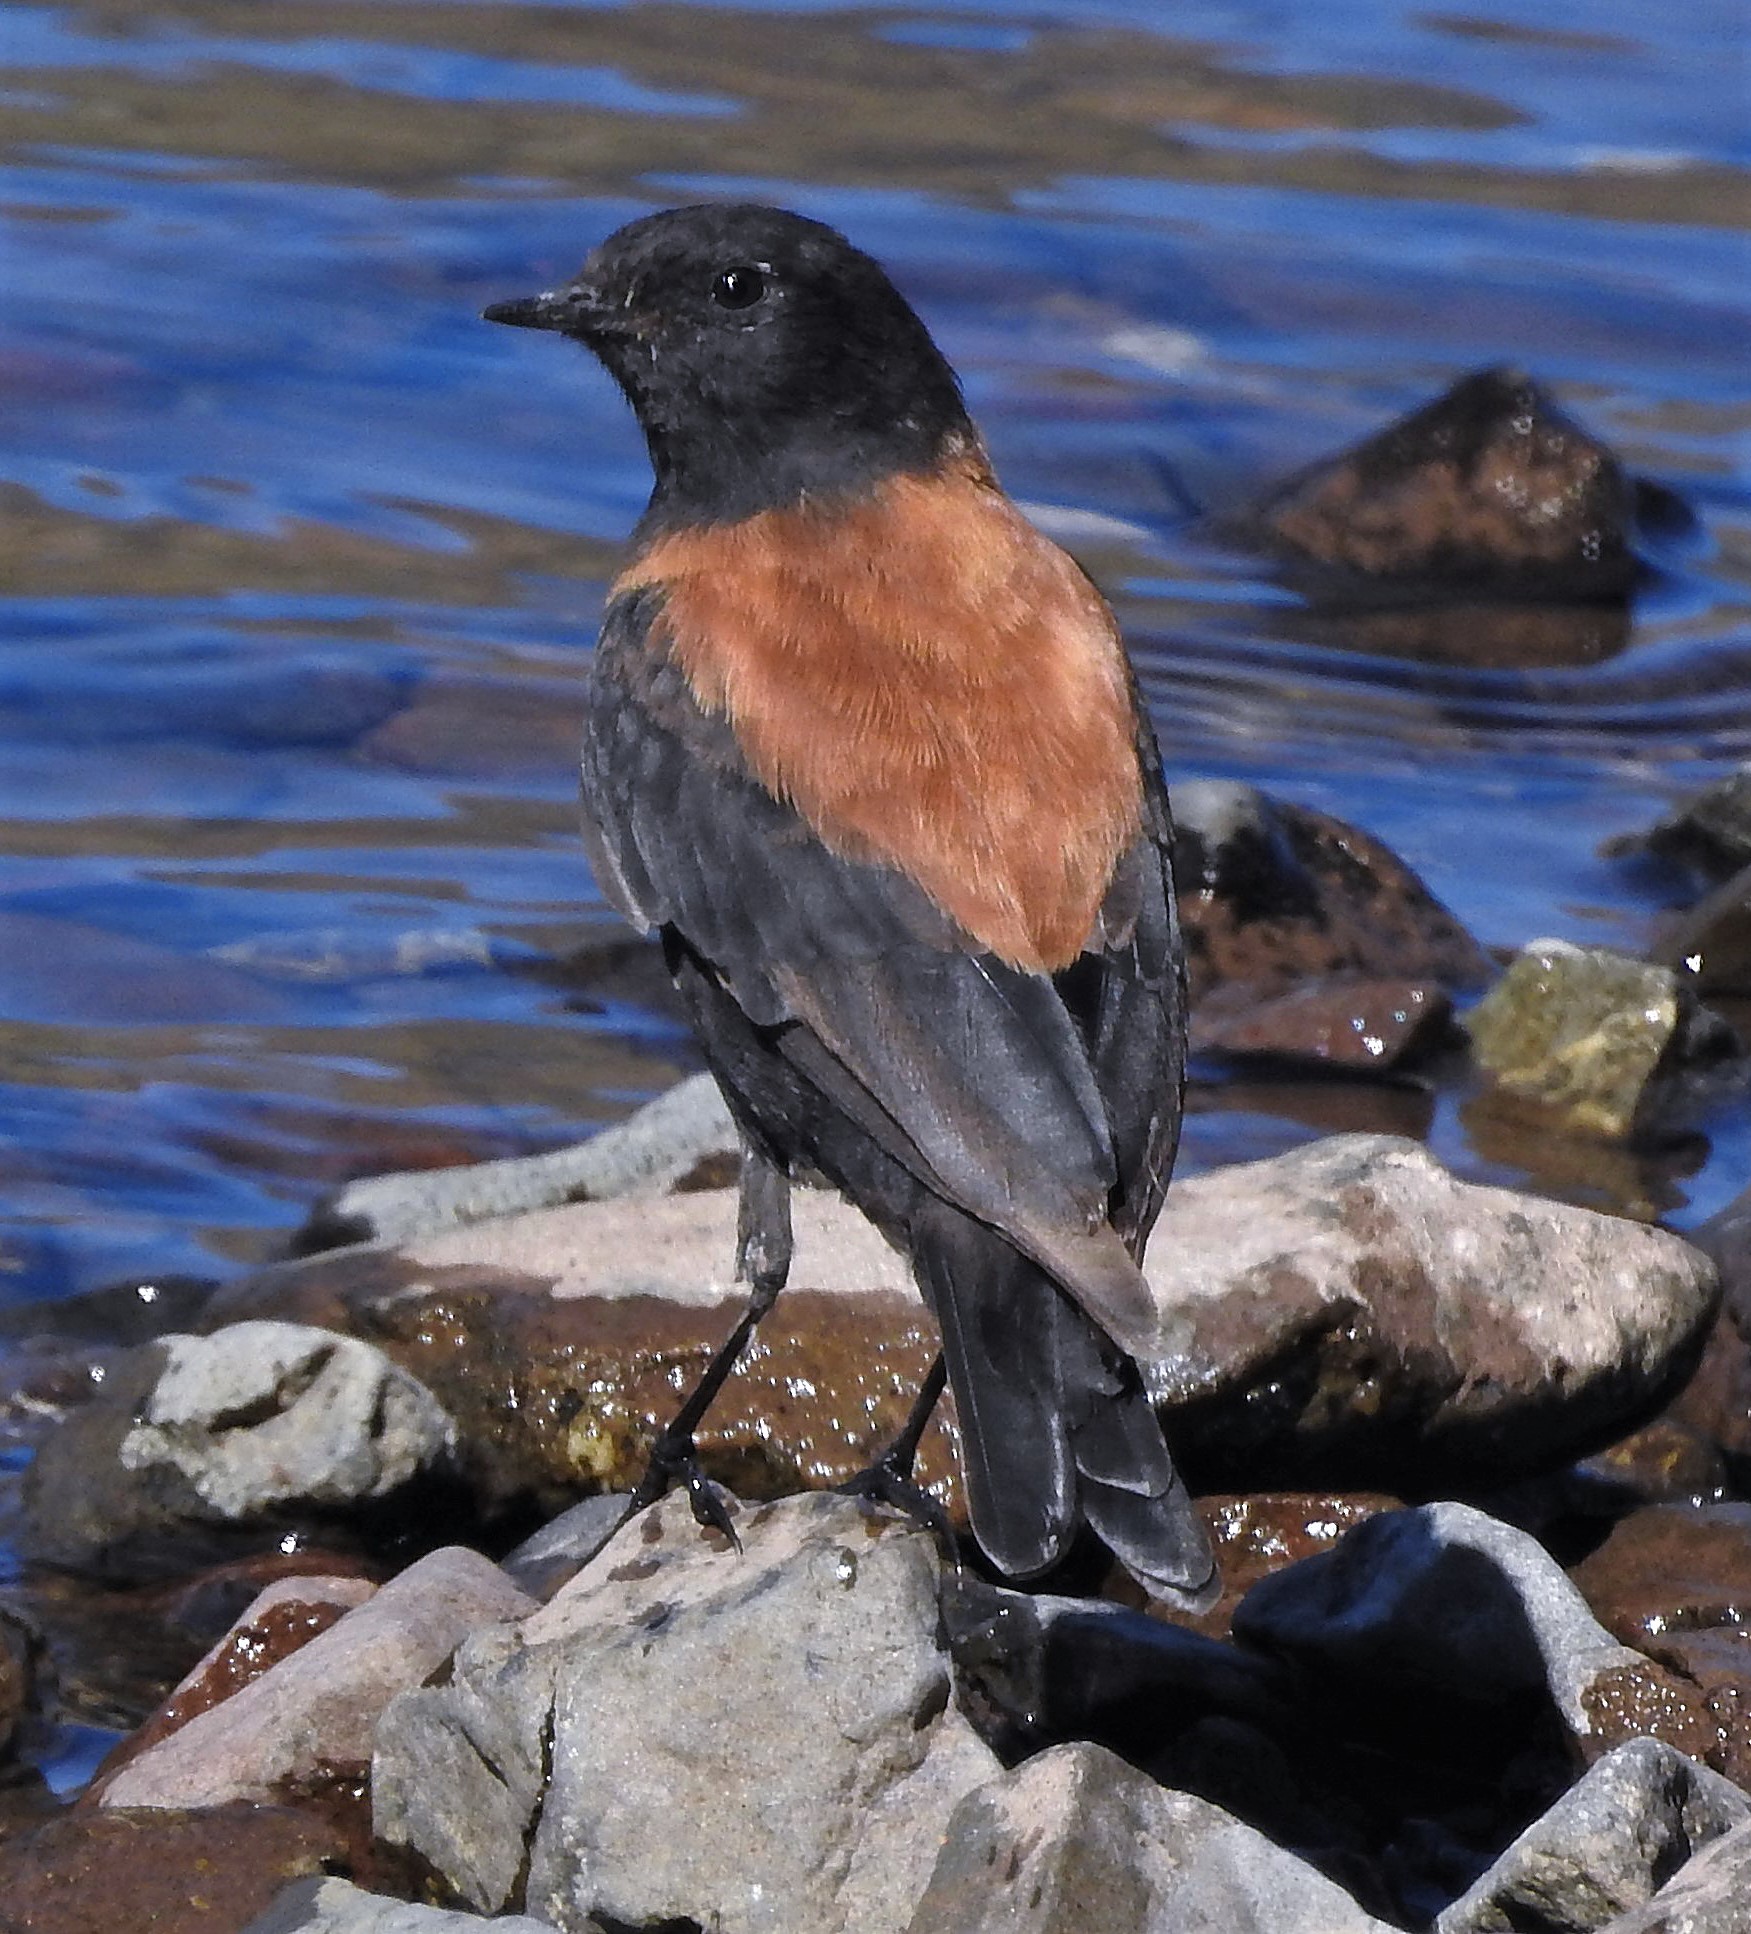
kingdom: Animalia
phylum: Chordata
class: Aves
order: Passeriformes
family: Tyrannidae
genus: Lessonia
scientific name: Lessonia rufa
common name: Austral negrito
